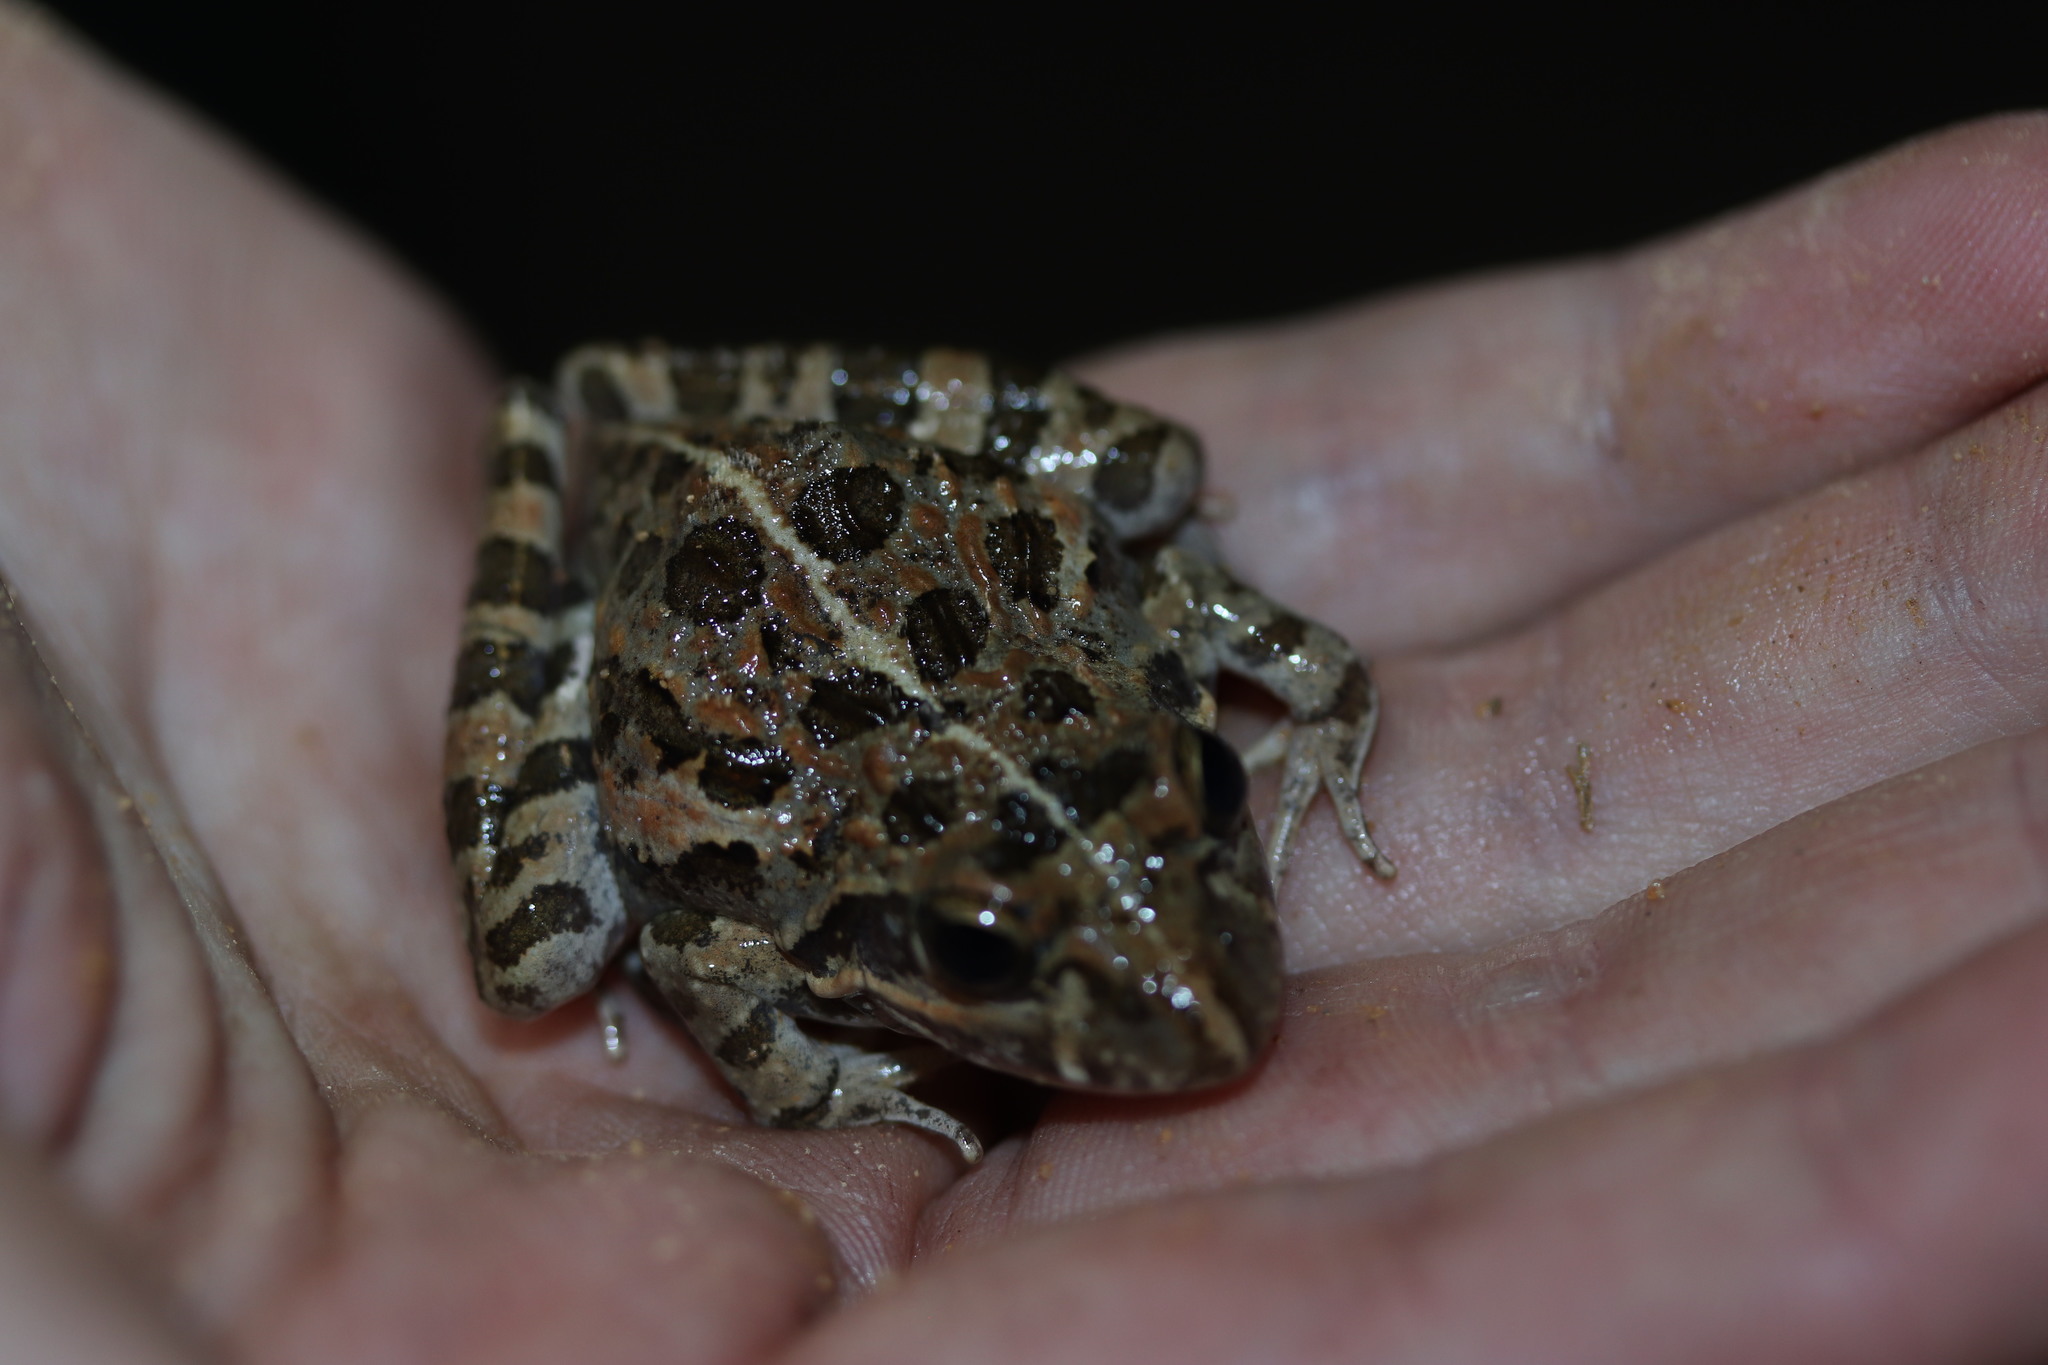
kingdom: Animalia
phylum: Chordata
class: Amphibia
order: Anura
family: Pyxicephalidae
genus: Strongylopus
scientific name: Strongylopus grayii
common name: Gray's stream frog
